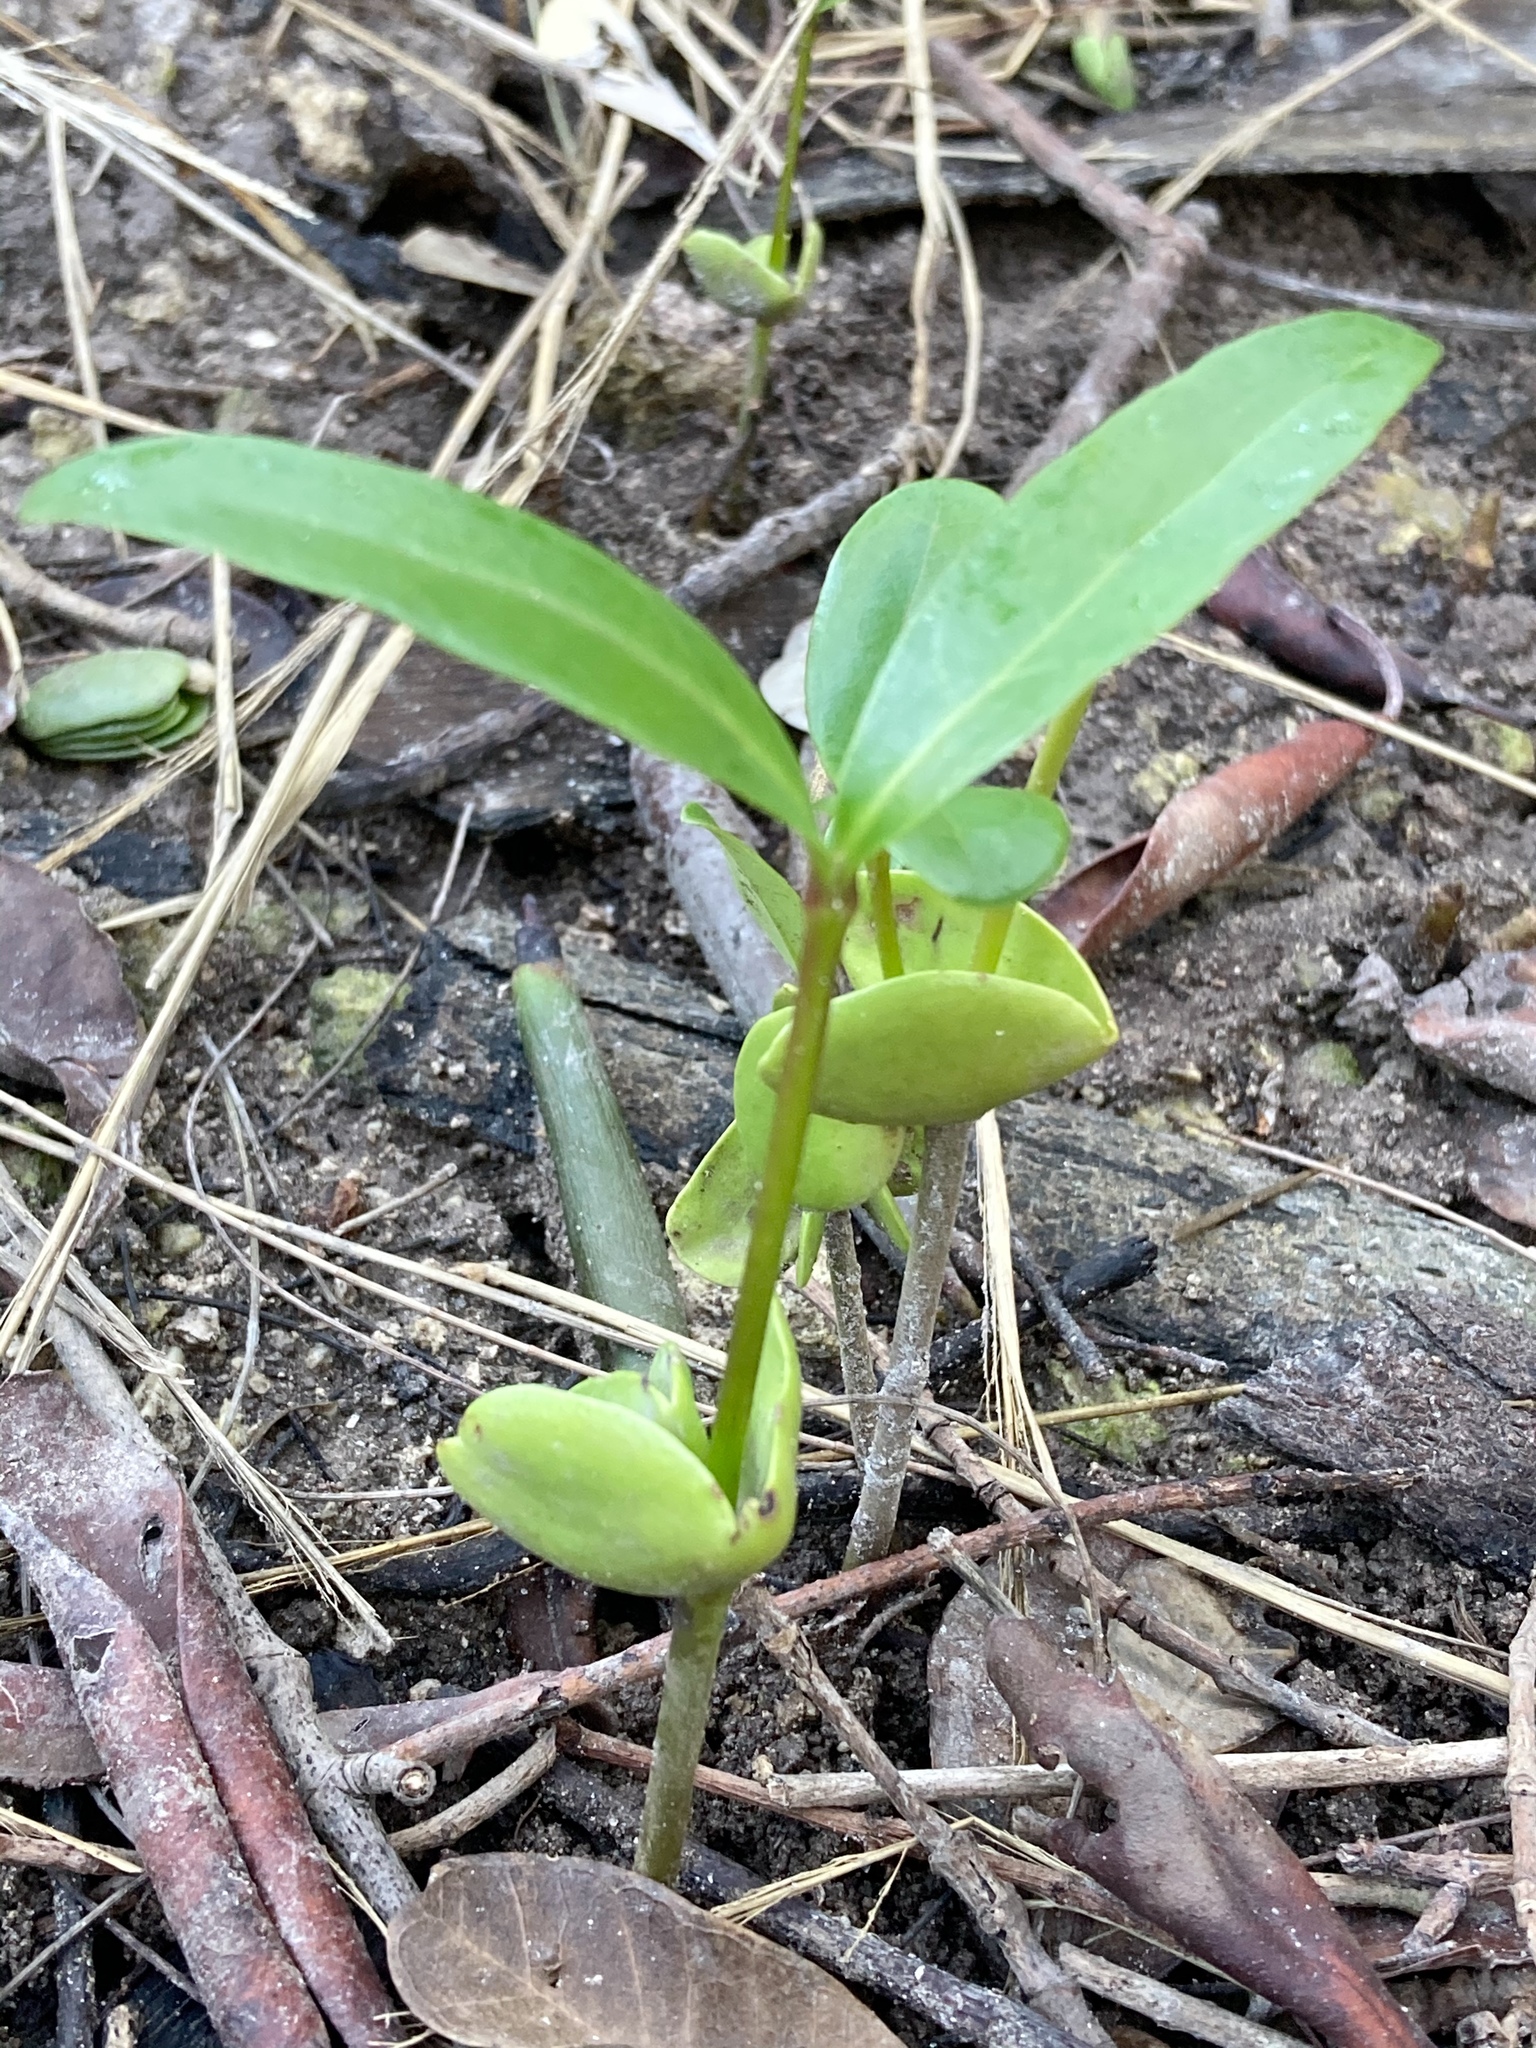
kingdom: Plantae
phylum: Tracheophyta
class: Magnoliopsida
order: Lamiales
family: Acanthaceae
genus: Avicennia
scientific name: Avicennia germinans
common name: Black mangrove
